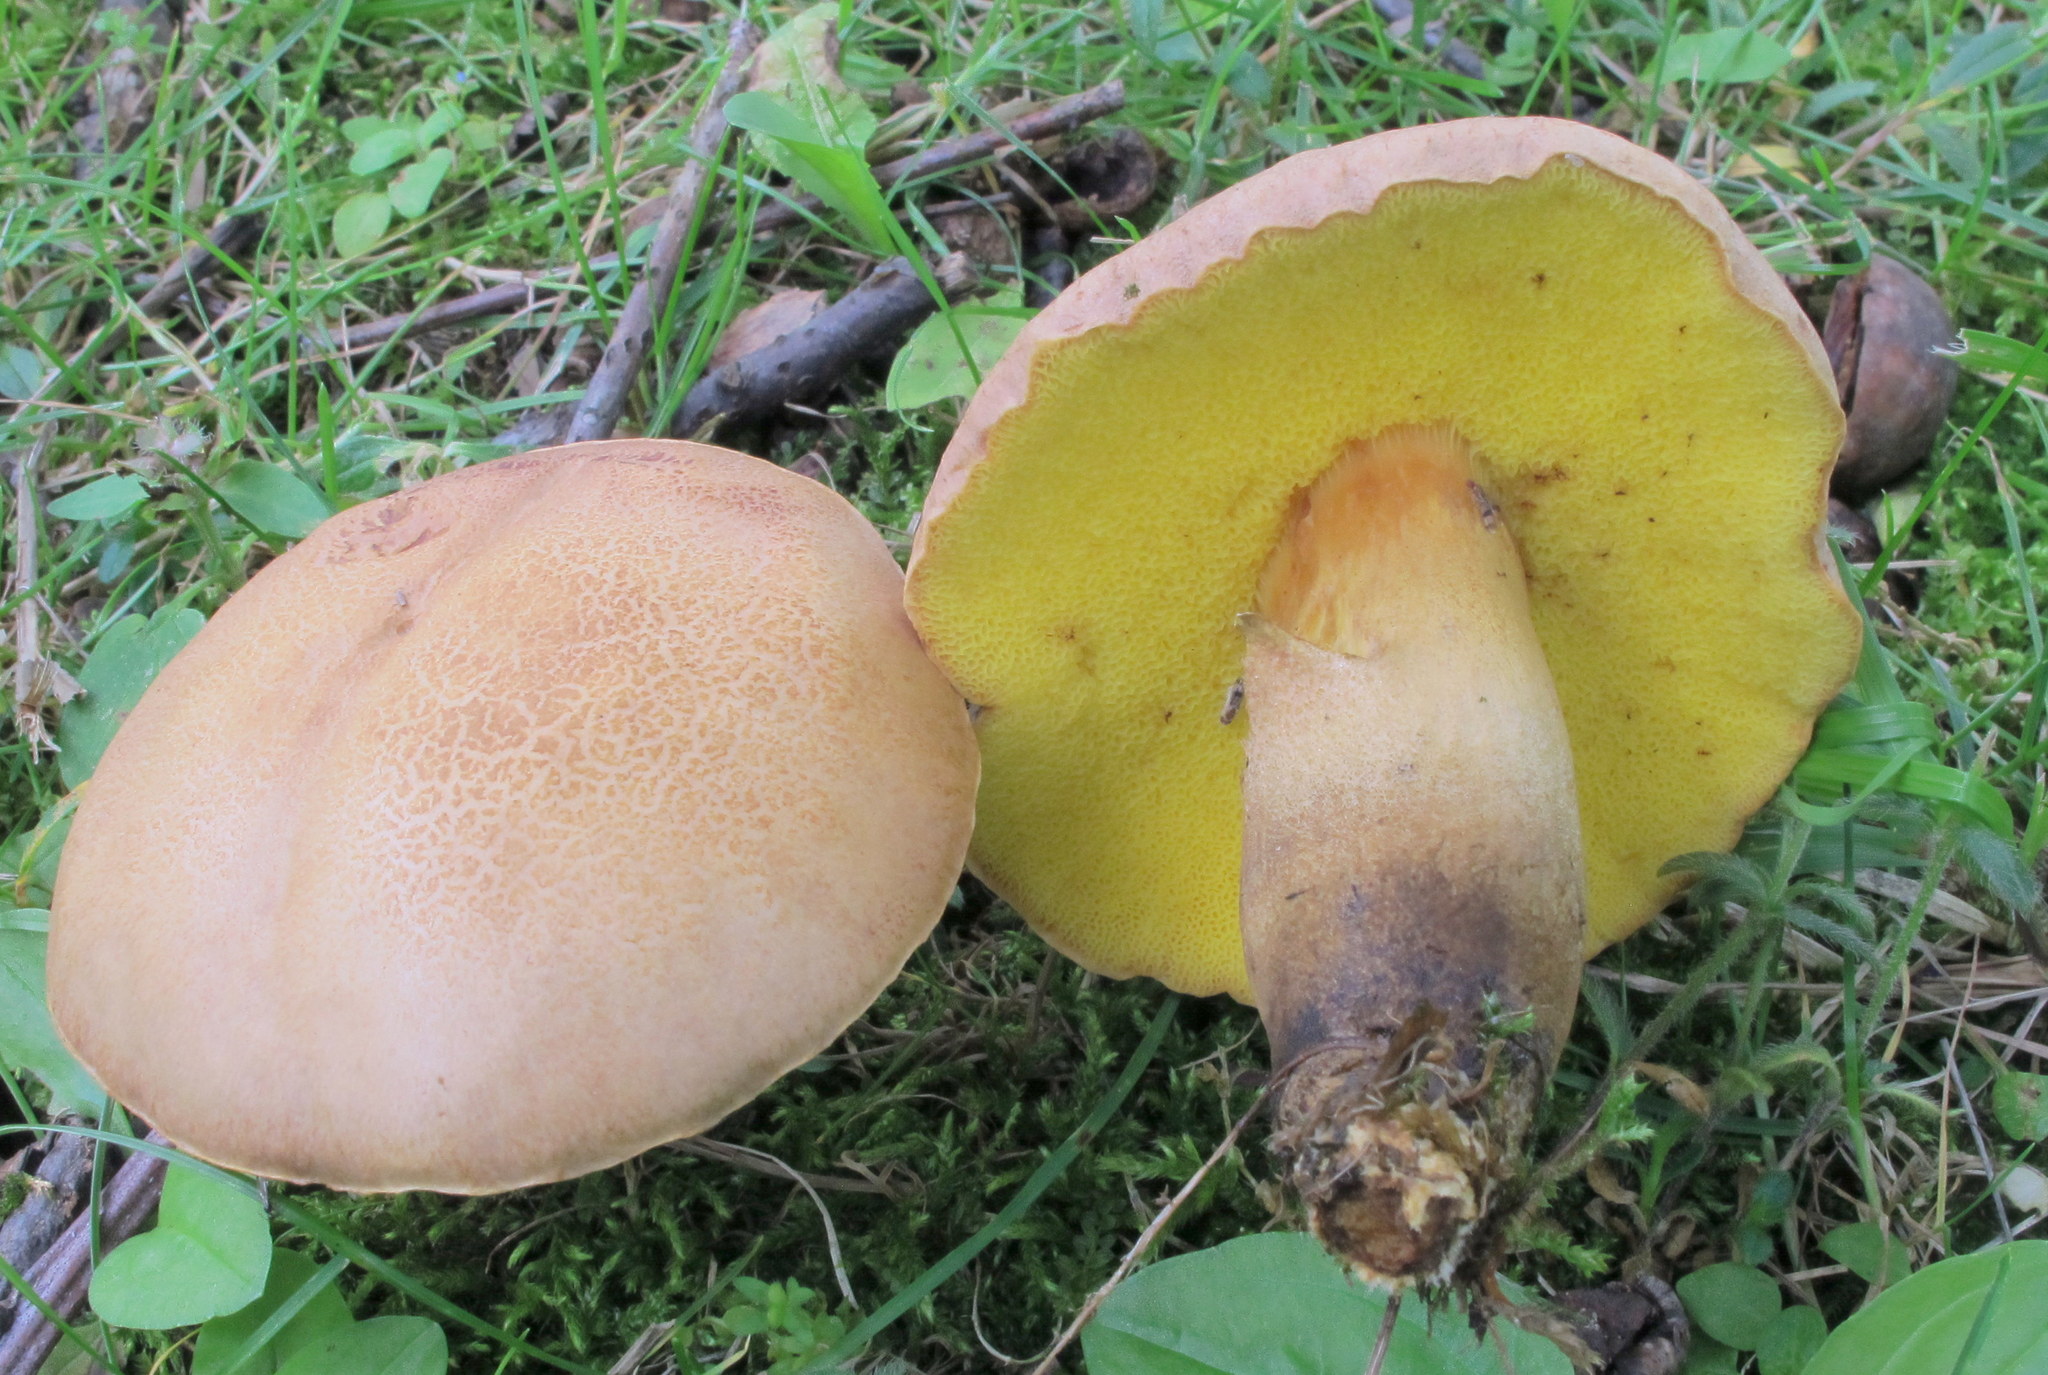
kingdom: Fungi
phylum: Basidiomycota
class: Agaricomycetes
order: Boletales
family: Boletaceae
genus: Aureoboletus
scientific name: Aureoboletus innixus
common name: Clustered brown bolete
